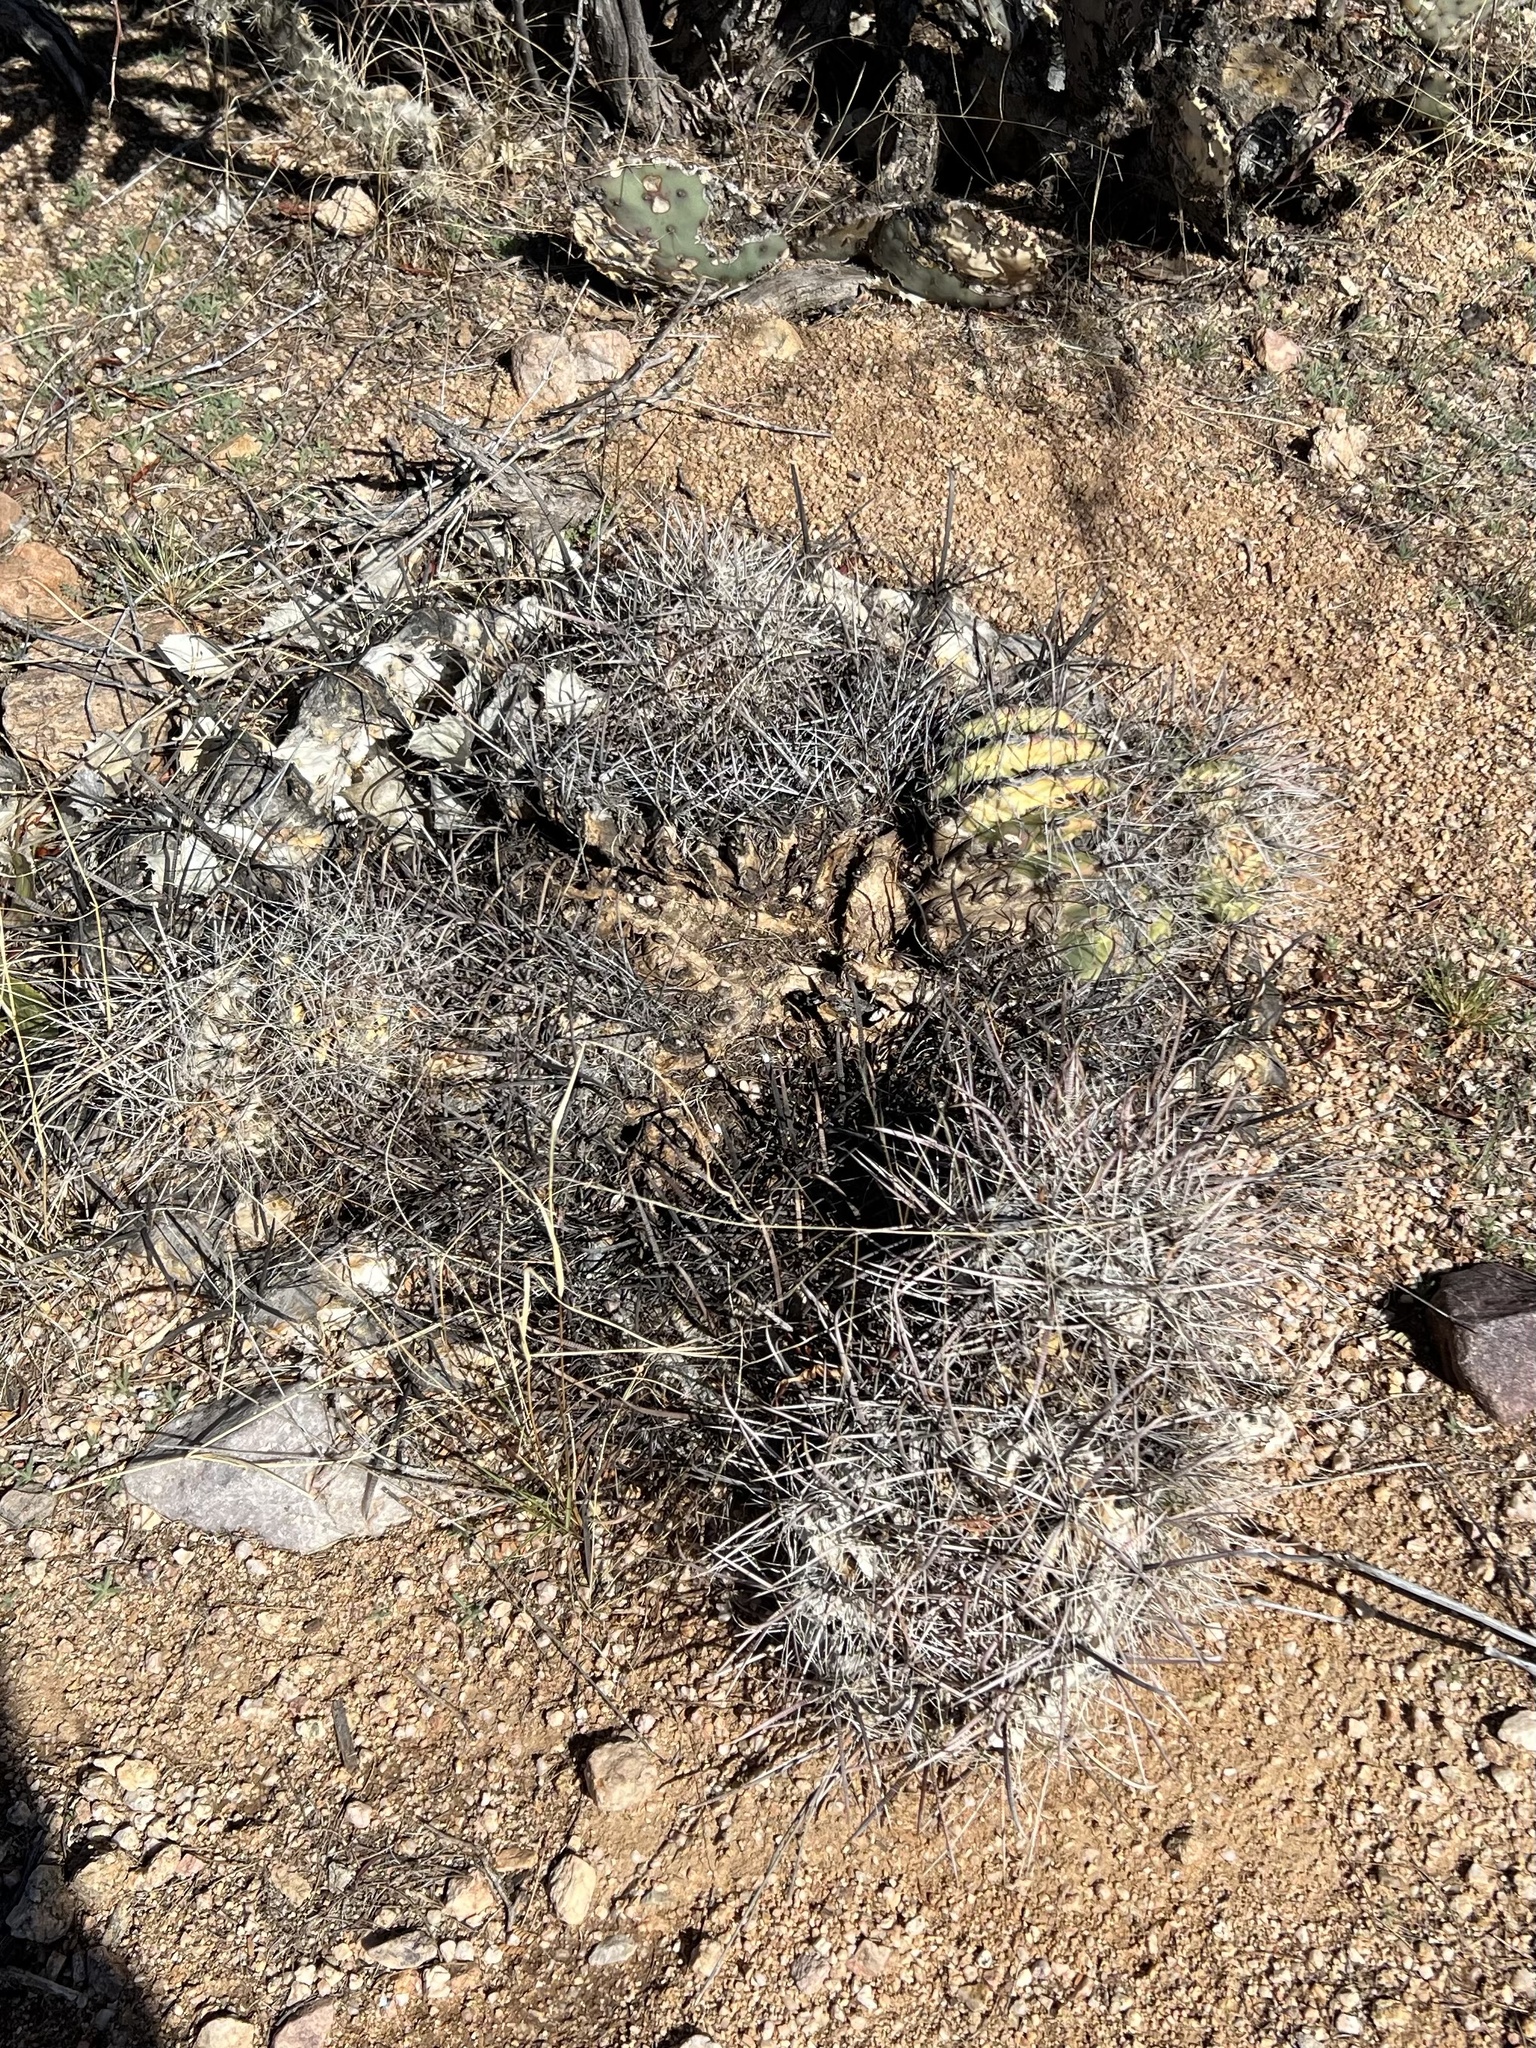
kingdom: Plantae
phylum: Tracheophyta
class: Magnoliopsida
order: Caryophyllales
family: Cactaceae
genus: Ferocactus
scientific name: Ferocactus wislizeni
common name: Candy barrel cactus
